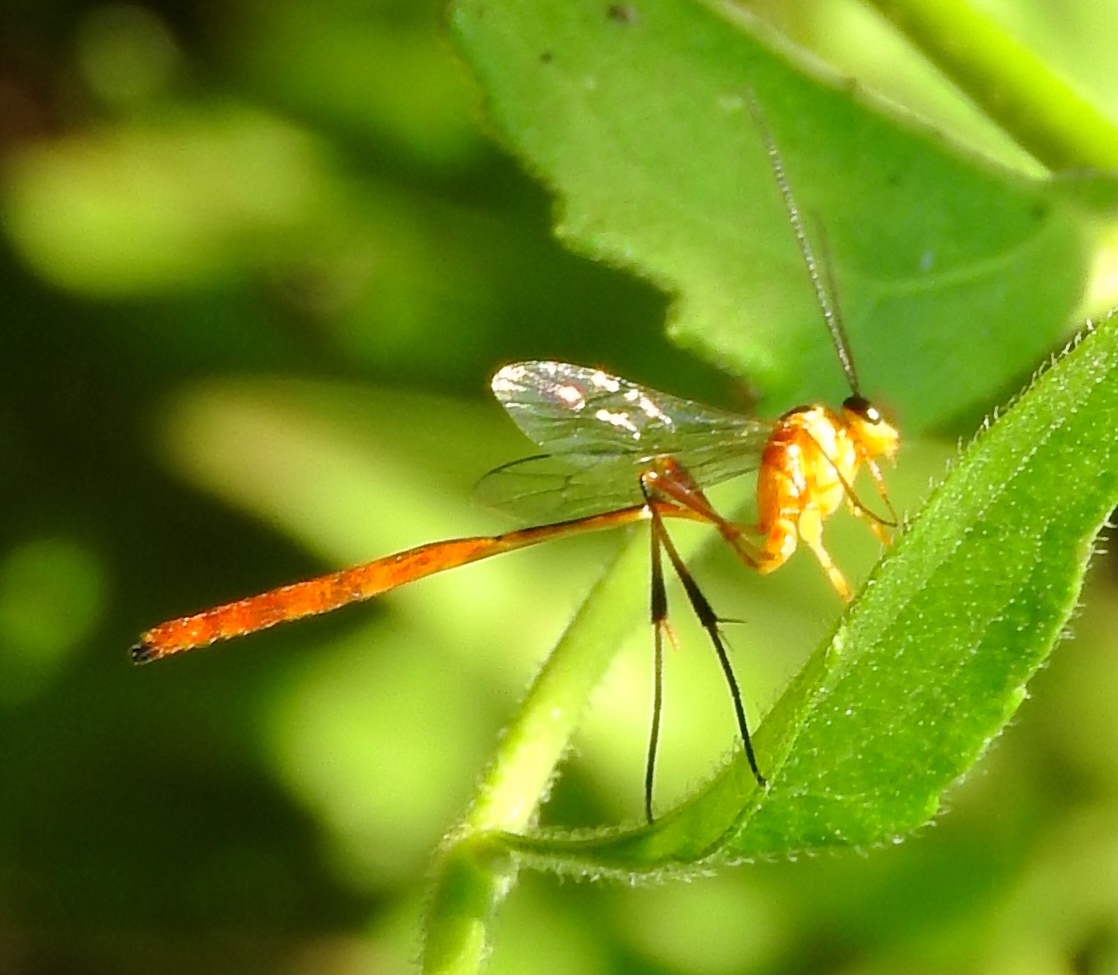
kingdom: Animalia
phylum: Arthropoda
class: Insecta
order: Hymenoptera
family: Ichneumonidae
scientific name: Ichneumonidae
